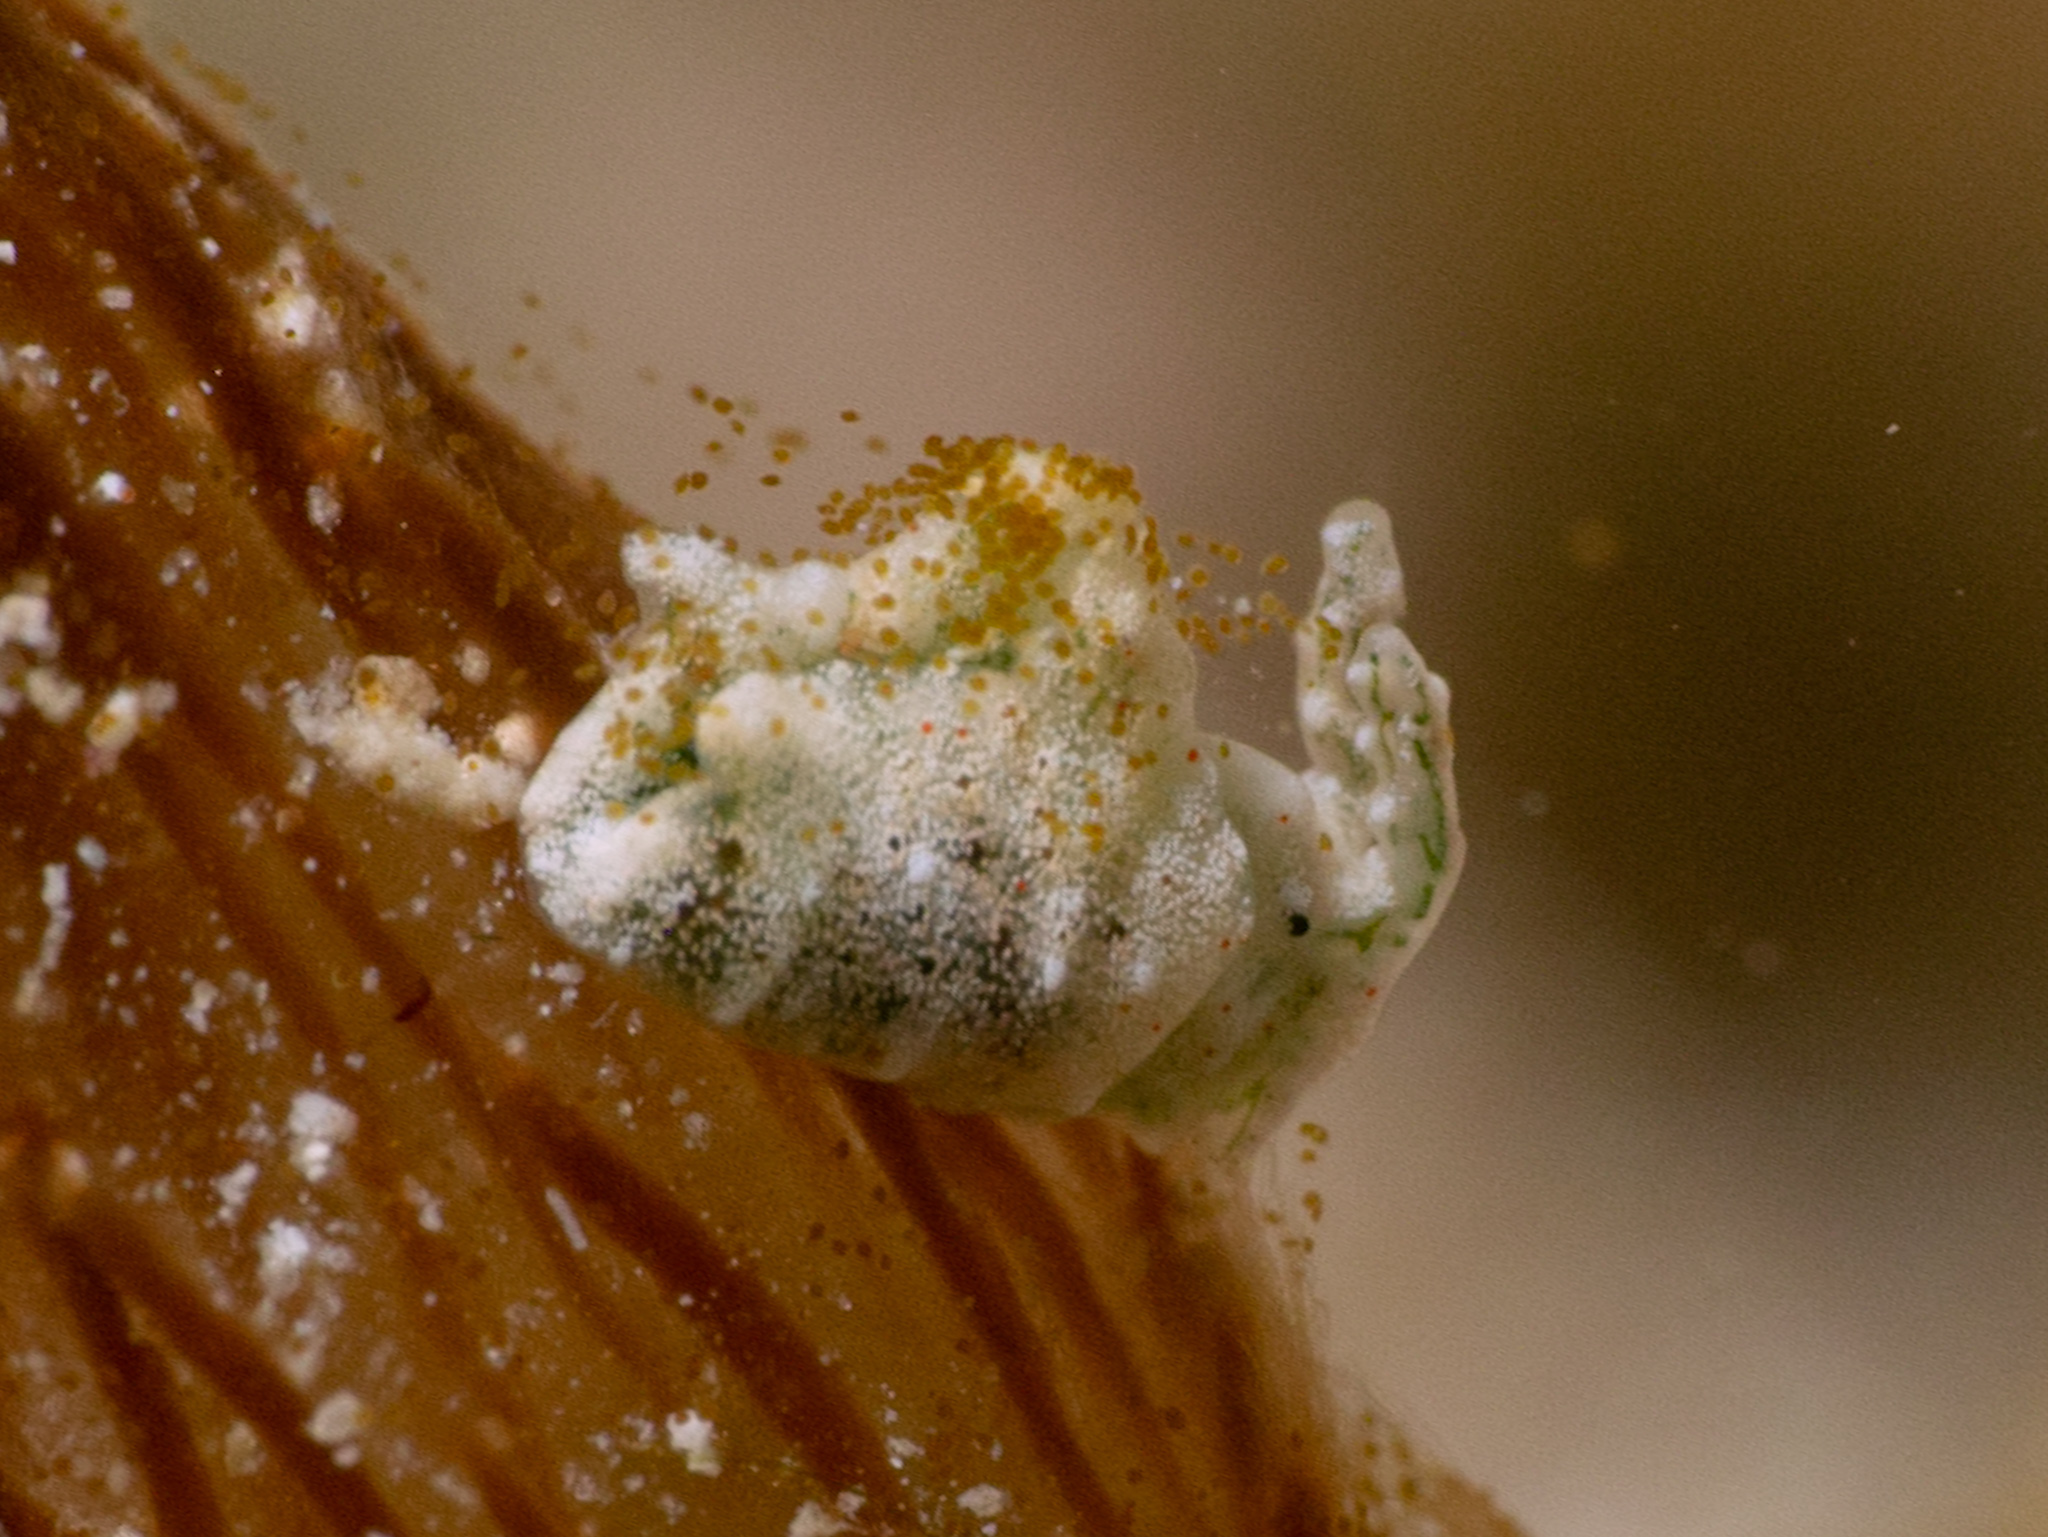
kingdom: Animalia
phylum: Mollusca
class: Gastropoda
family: Plakobranchidae
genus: Elysia
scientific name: Elysia cornigera
